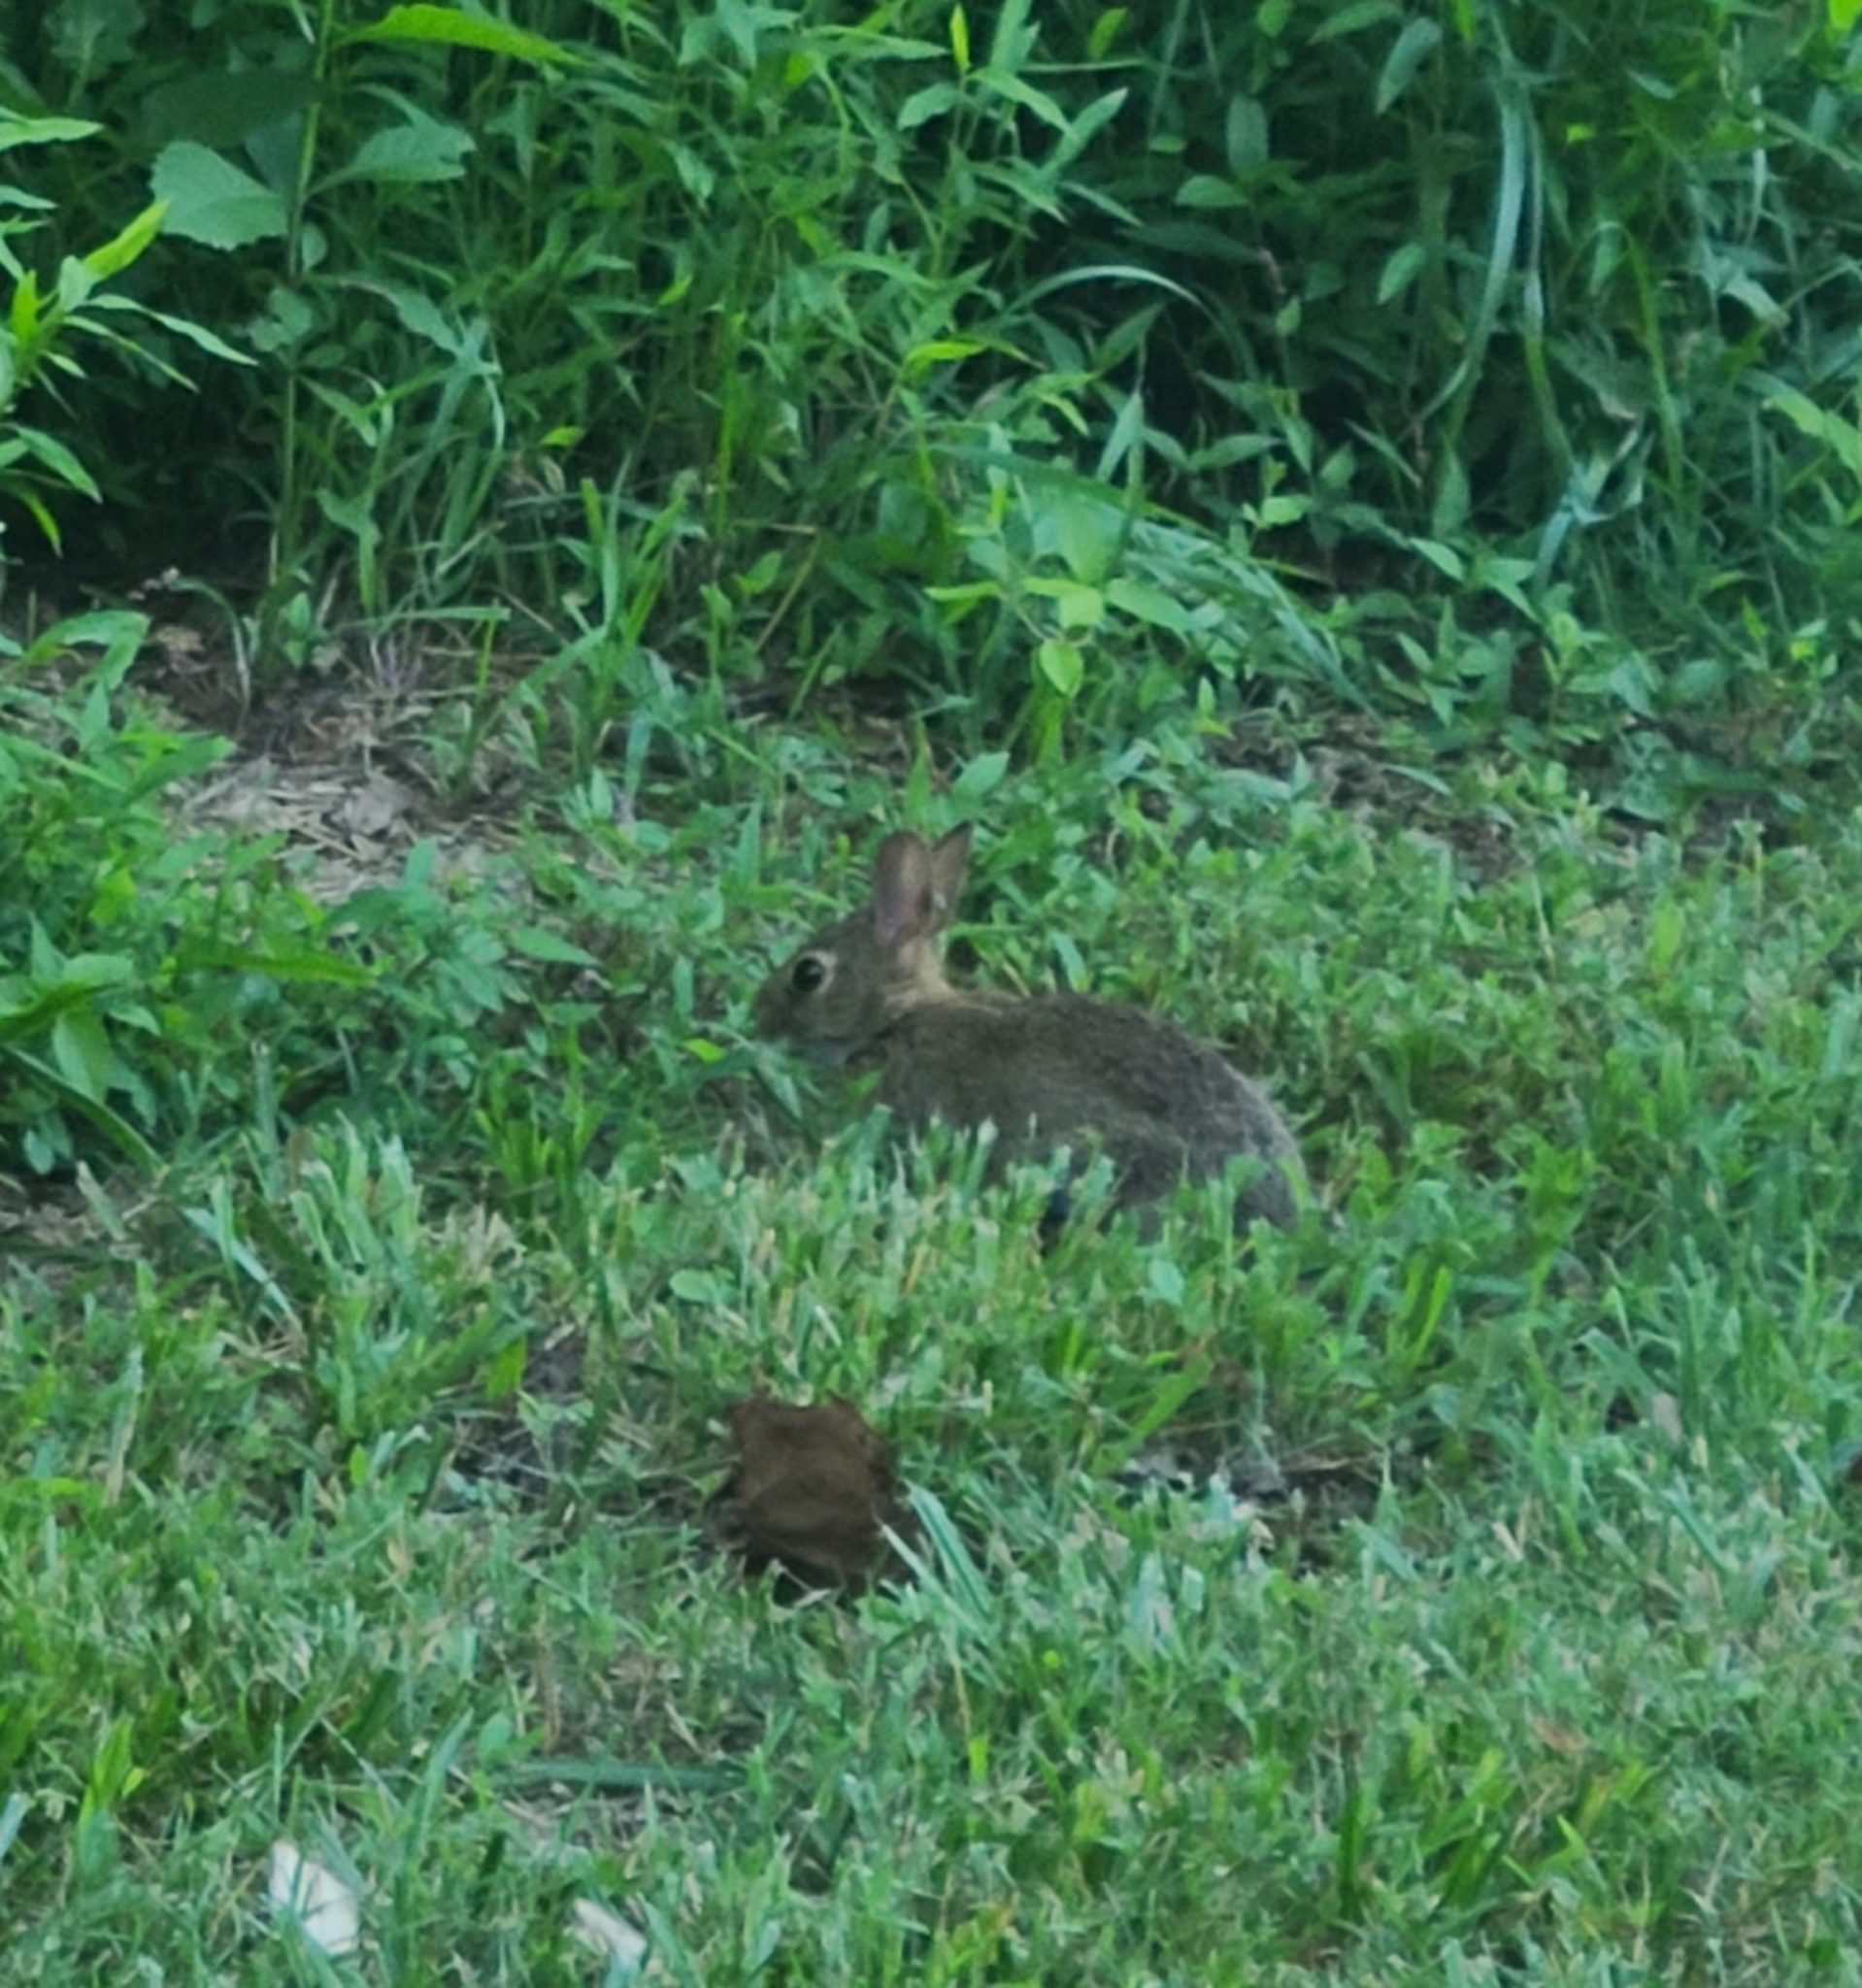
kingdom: Animalia
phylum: Chordata
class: Mammalia
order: Lagomorpha
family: Leporidae
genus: Sylvilagus
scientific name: Sylvilagus floridanus
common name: Eastern cottontail
